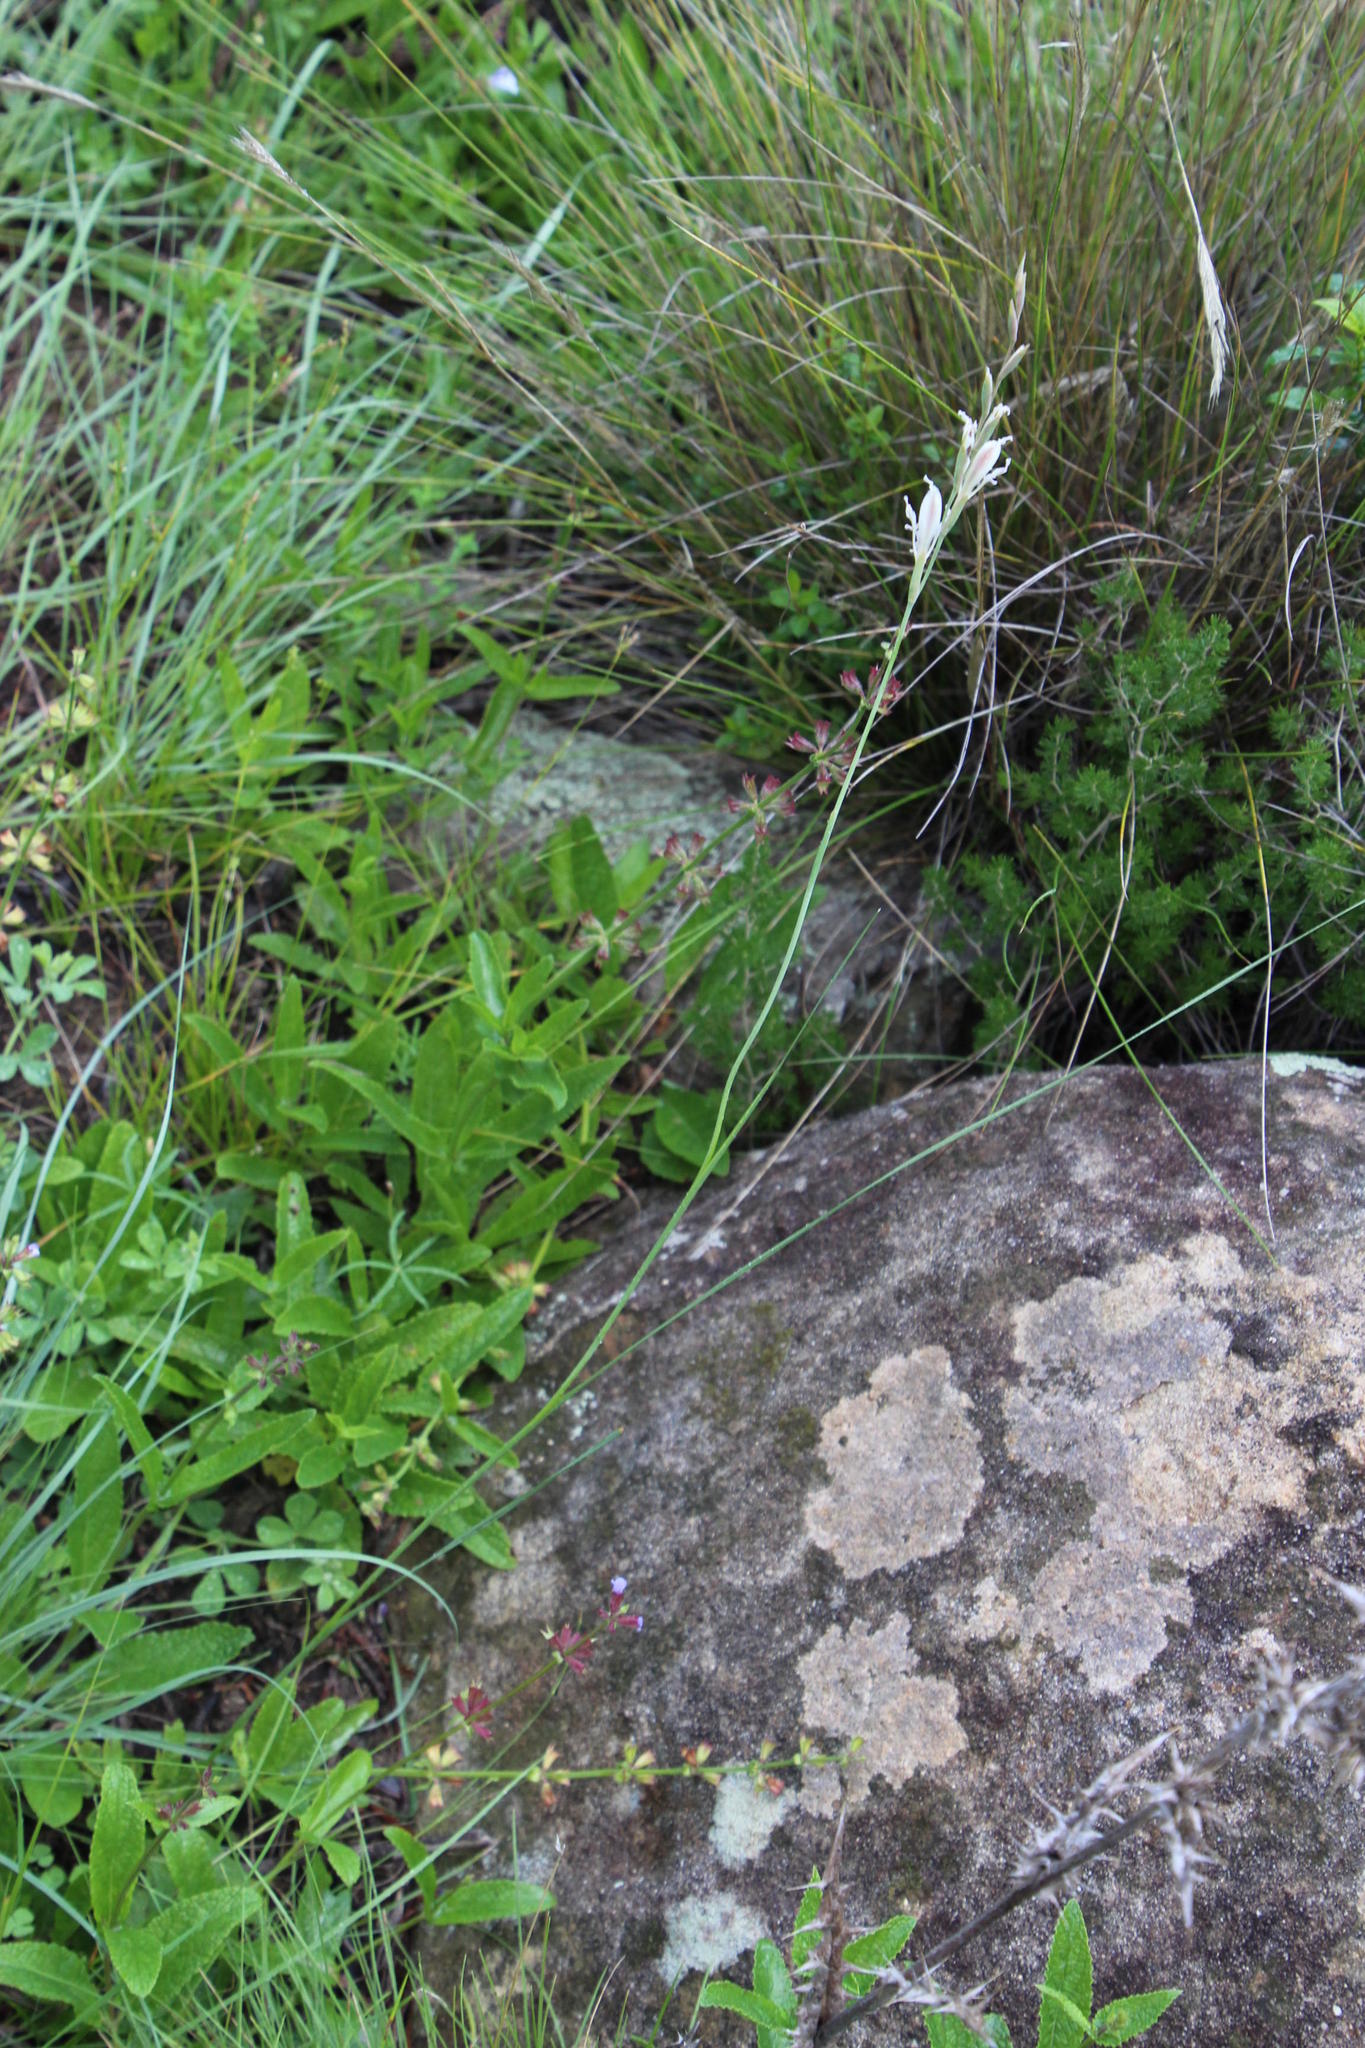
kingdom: Plantae
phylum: Tracheophyta
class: Liliopsida
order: Asparagales
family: Iridaceae
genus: Gladiolus
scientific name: Gladiolus permeabilis
